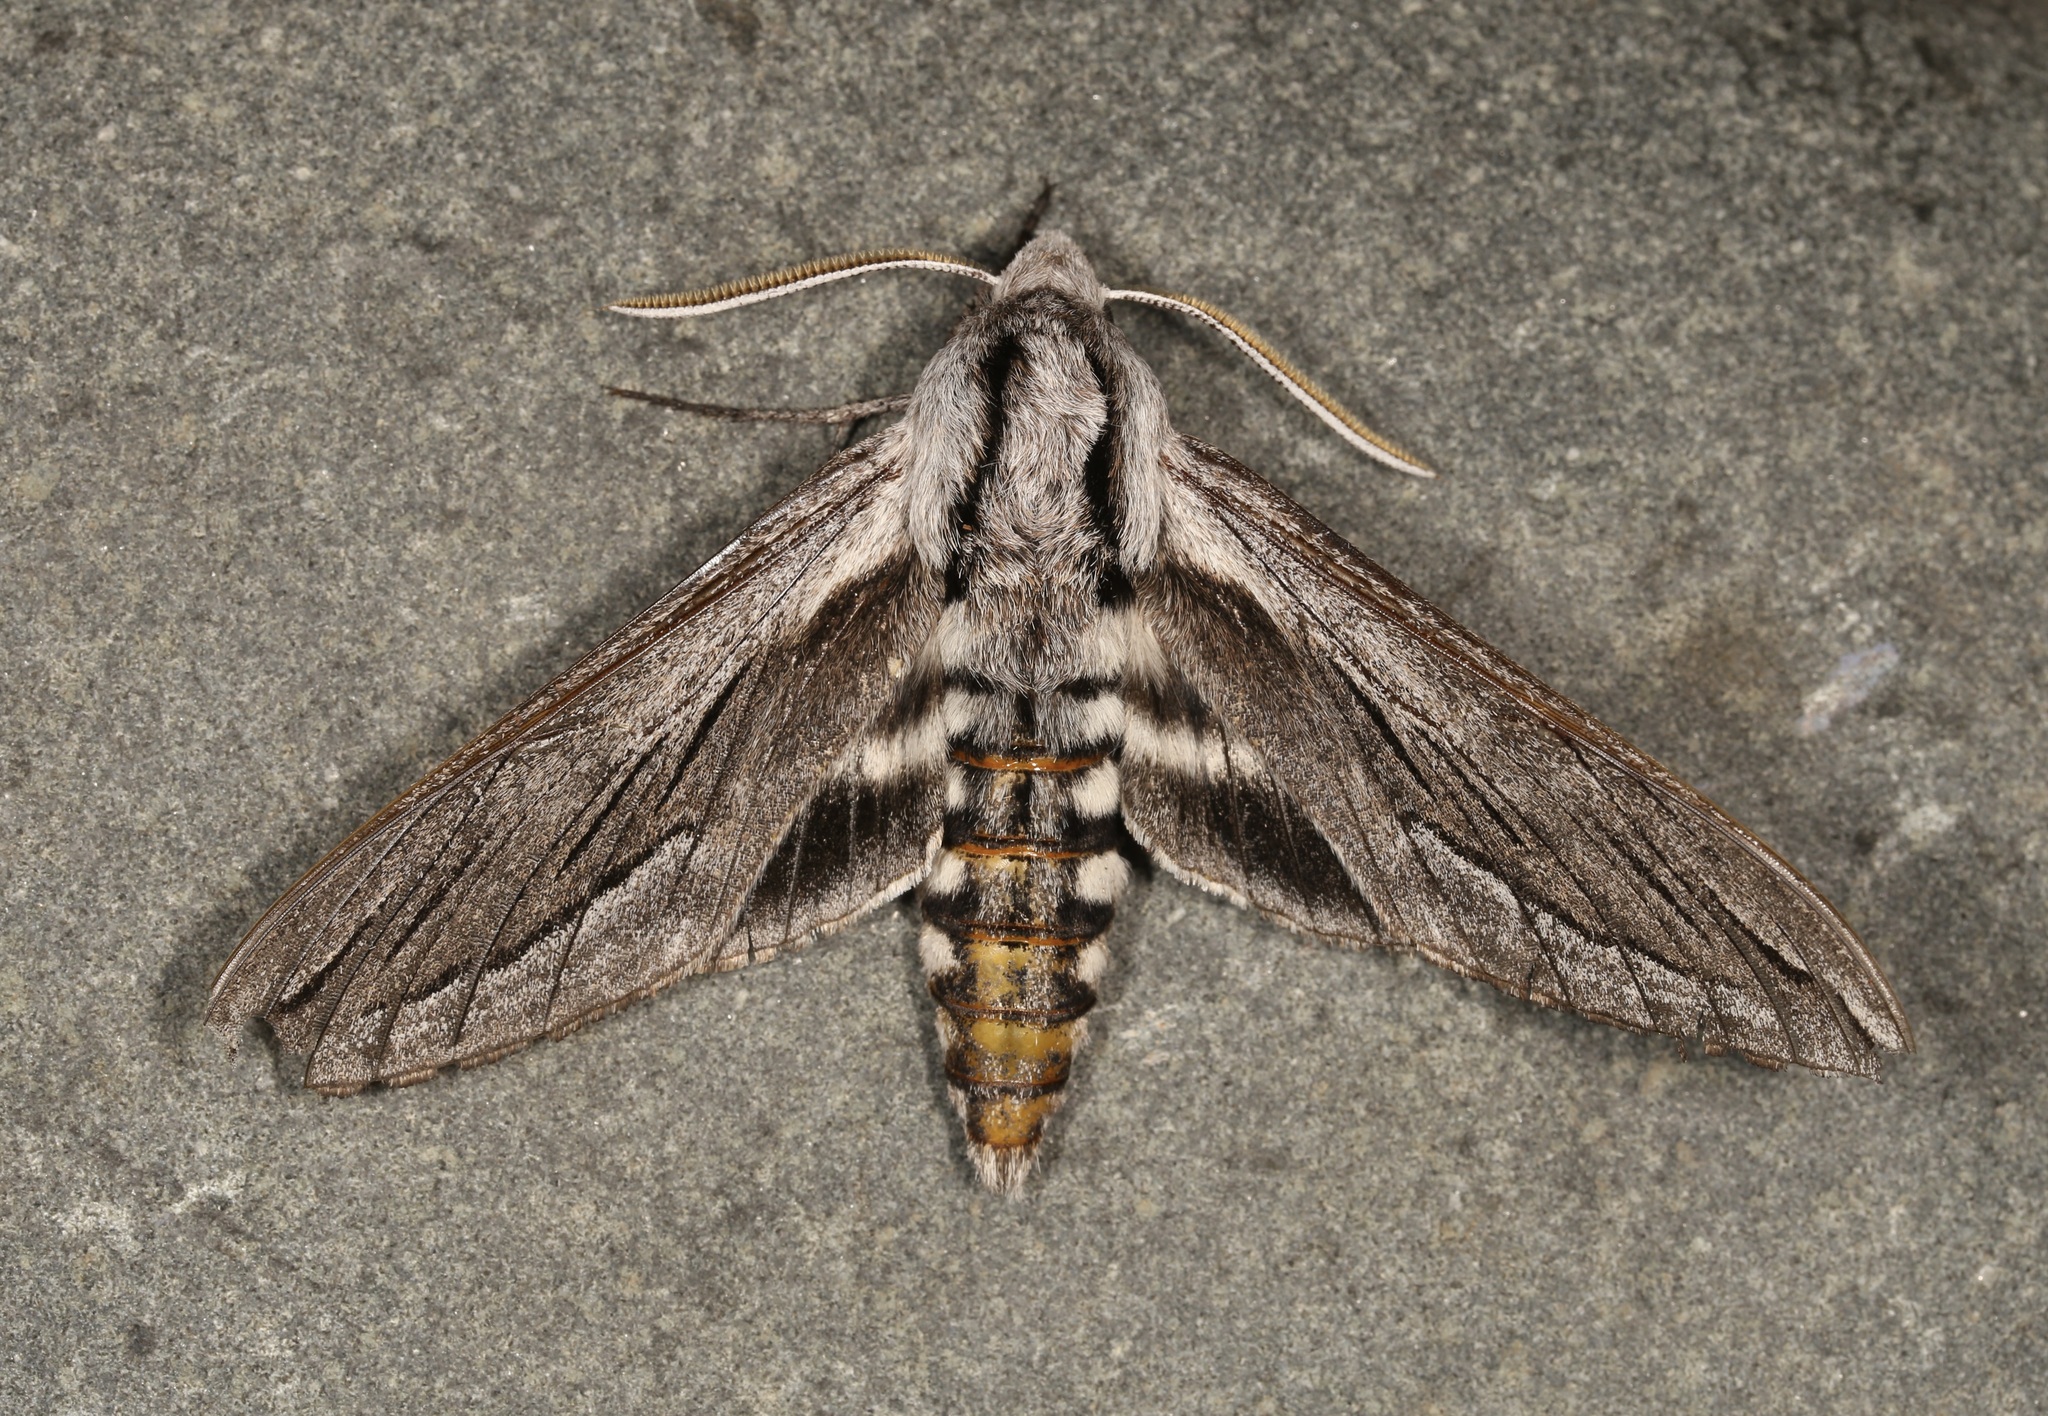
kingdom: Animalia
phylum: Arthropoda
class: Insecta
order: Lepidoptera
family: Sphingidae
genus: Sphinx
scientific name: Sphinx vashti
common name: Snowberry sphinx
